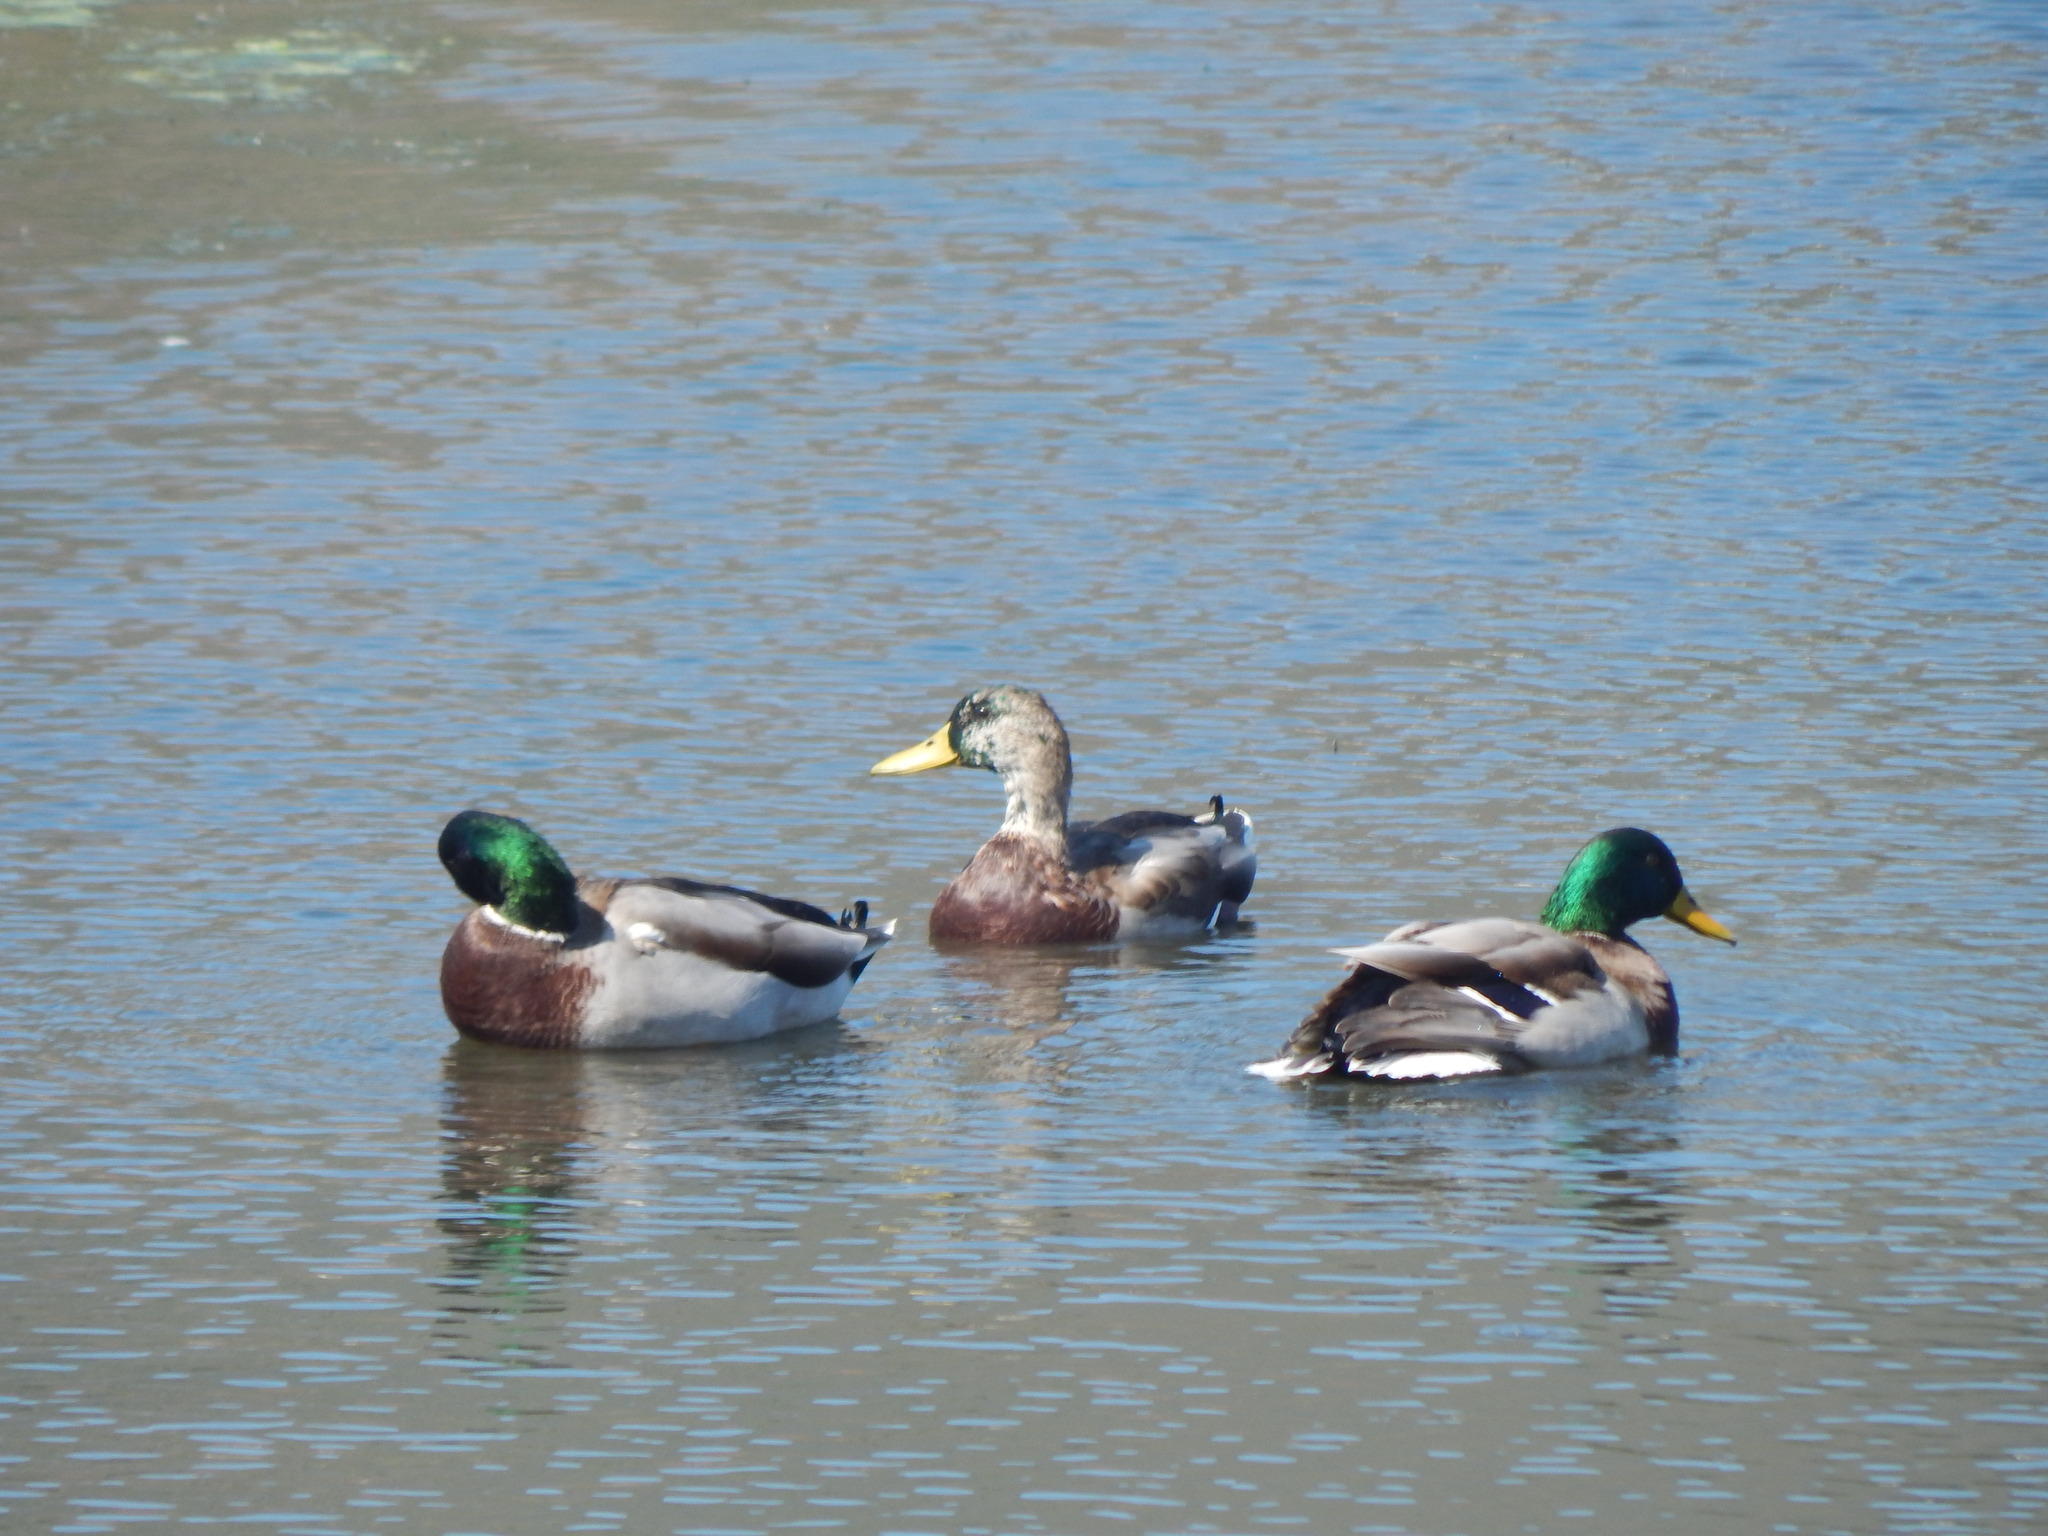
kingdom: Animalia
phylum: Chordata
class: Aves
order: Anseriformes
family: Anatidae
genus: Anas
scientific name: Anas platyrhynchos
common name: Mallard
